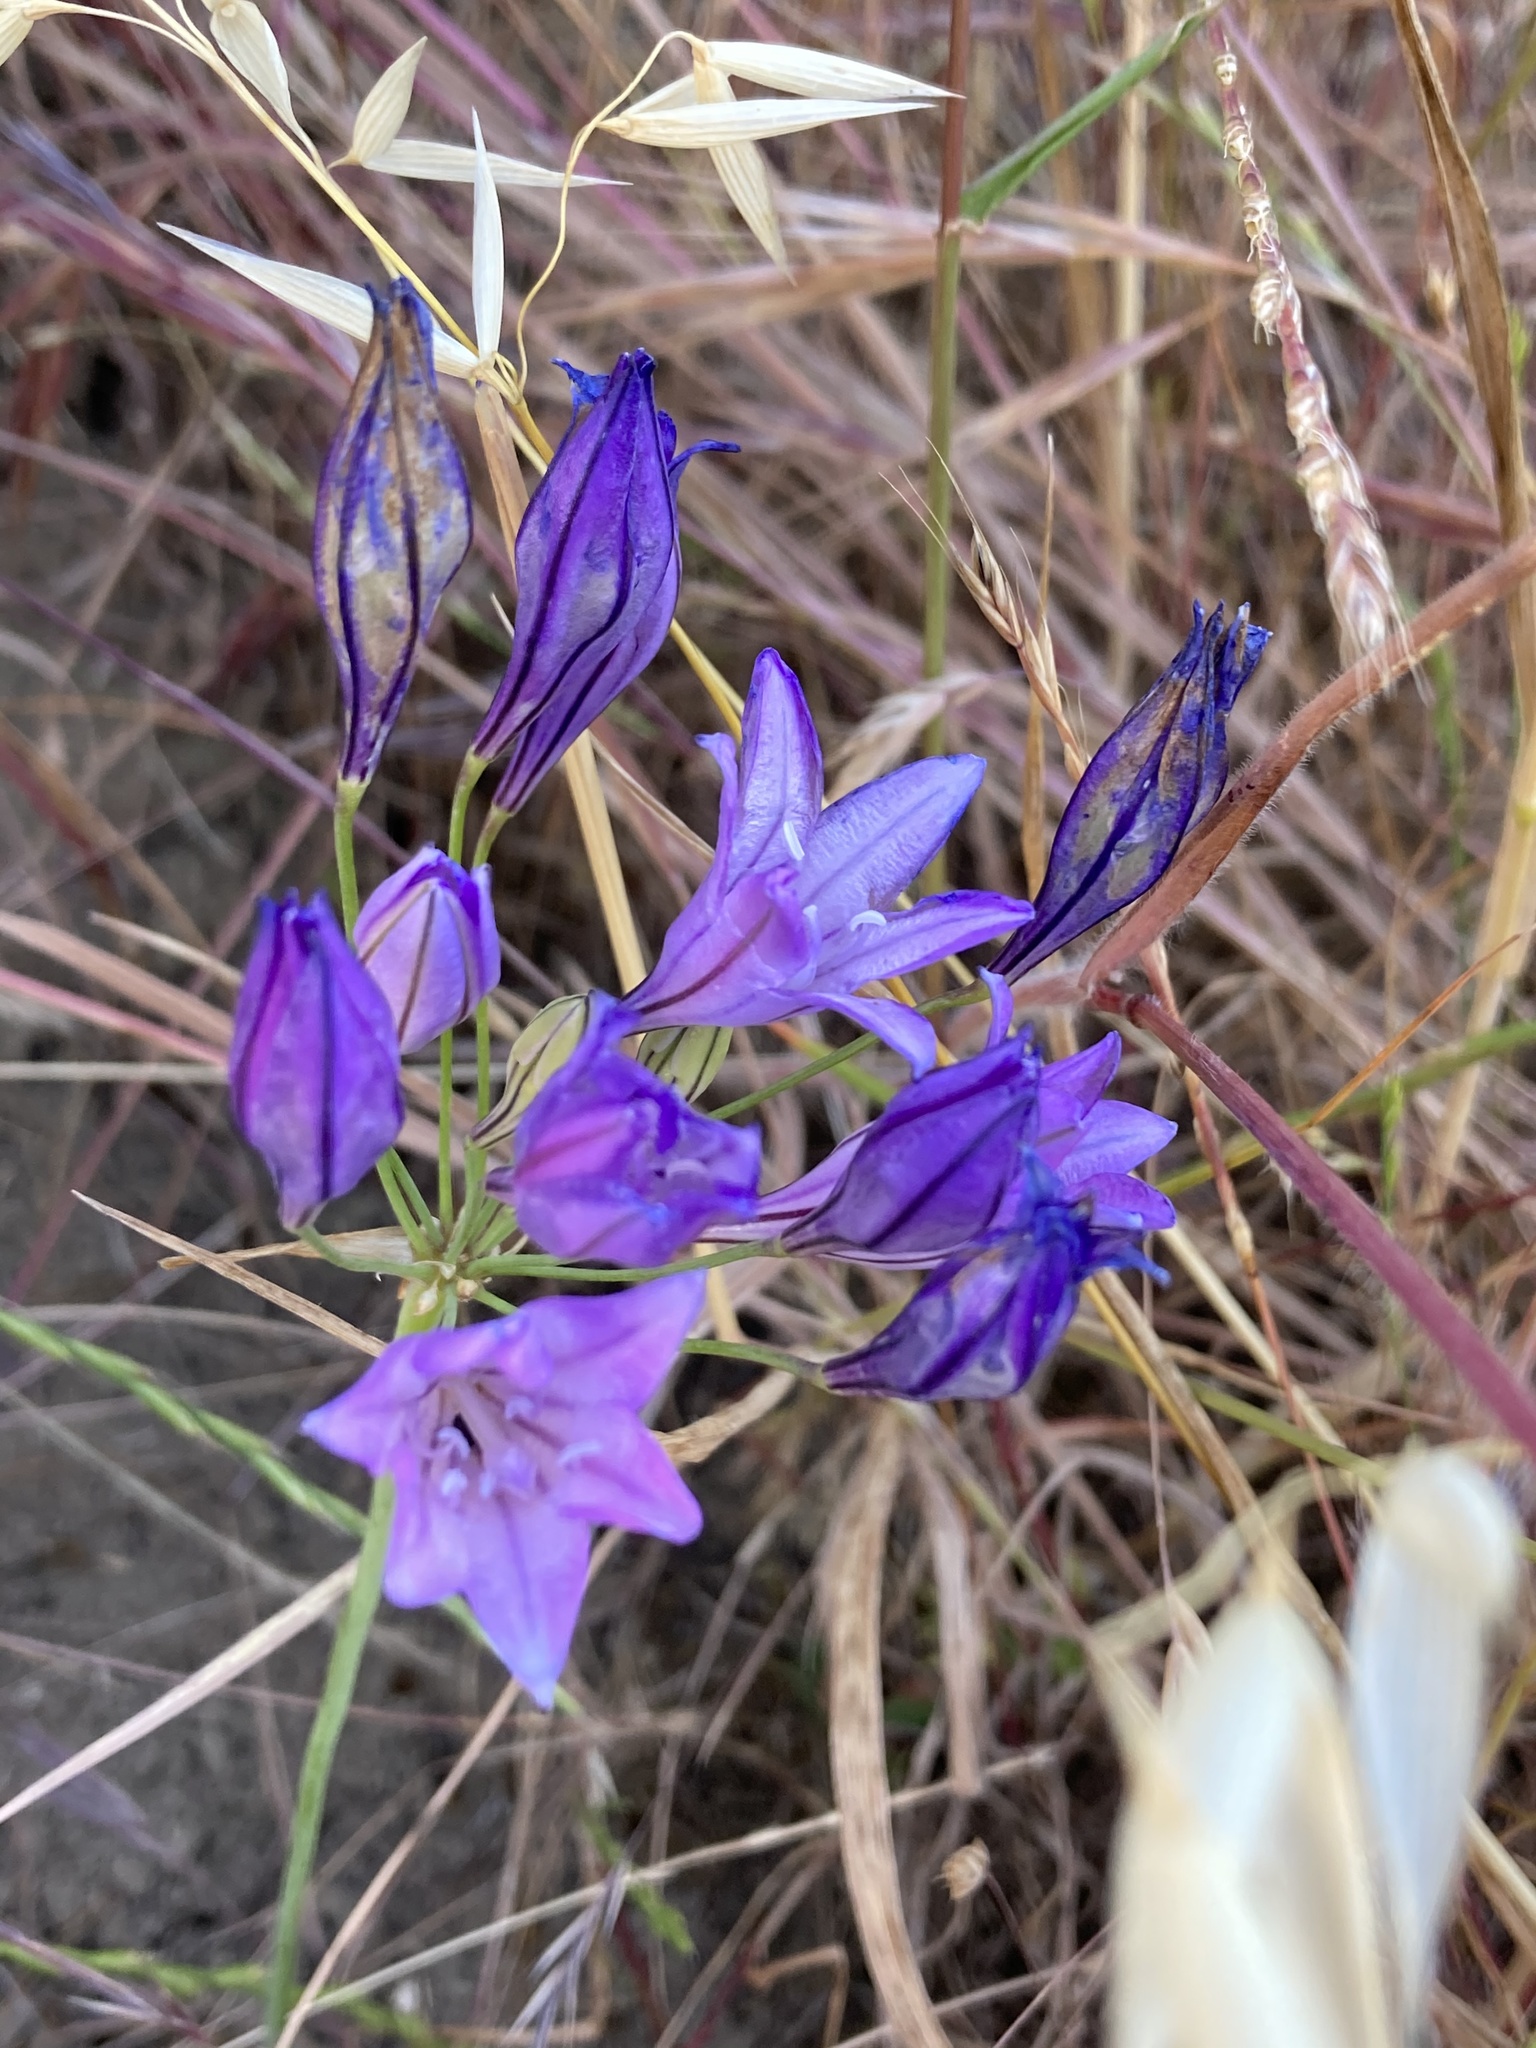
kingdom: Plantae
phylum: Tracheophyta
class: Liliopsida
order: Asparagales
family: Asparagaceae
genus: Triteleia
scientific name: Triteleia laxa
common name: Triplet-lily
